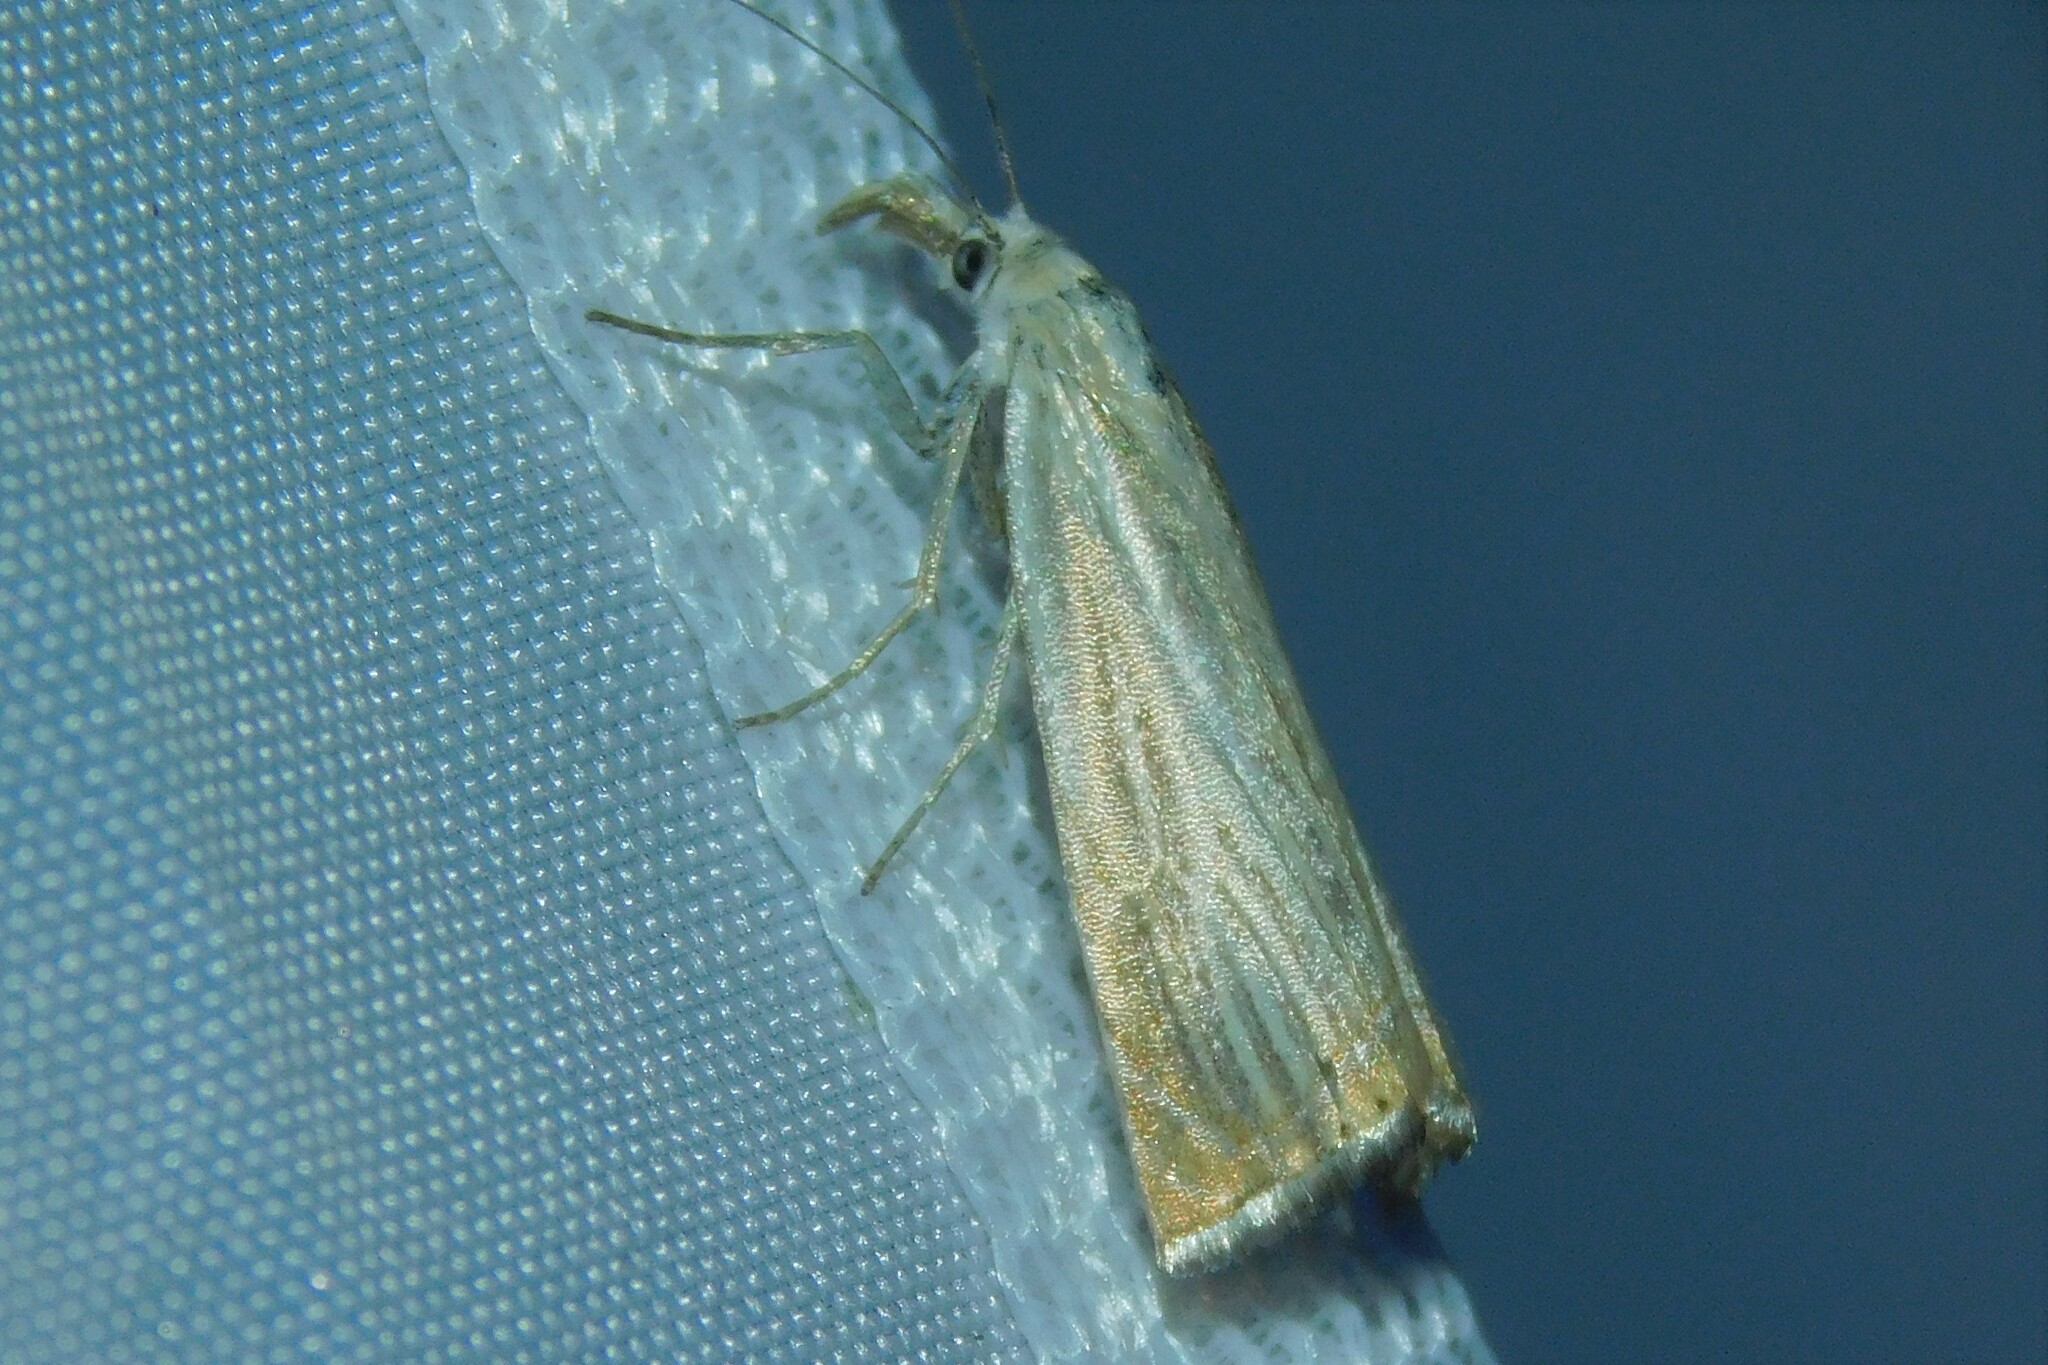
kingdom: Animalia
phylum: Arthropoda
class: Insecta
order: Lepidoptera
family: Crambidae
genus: Chrysoteuchia
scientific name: Chrysoteuchia culmella
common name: Garden grass-veneer
